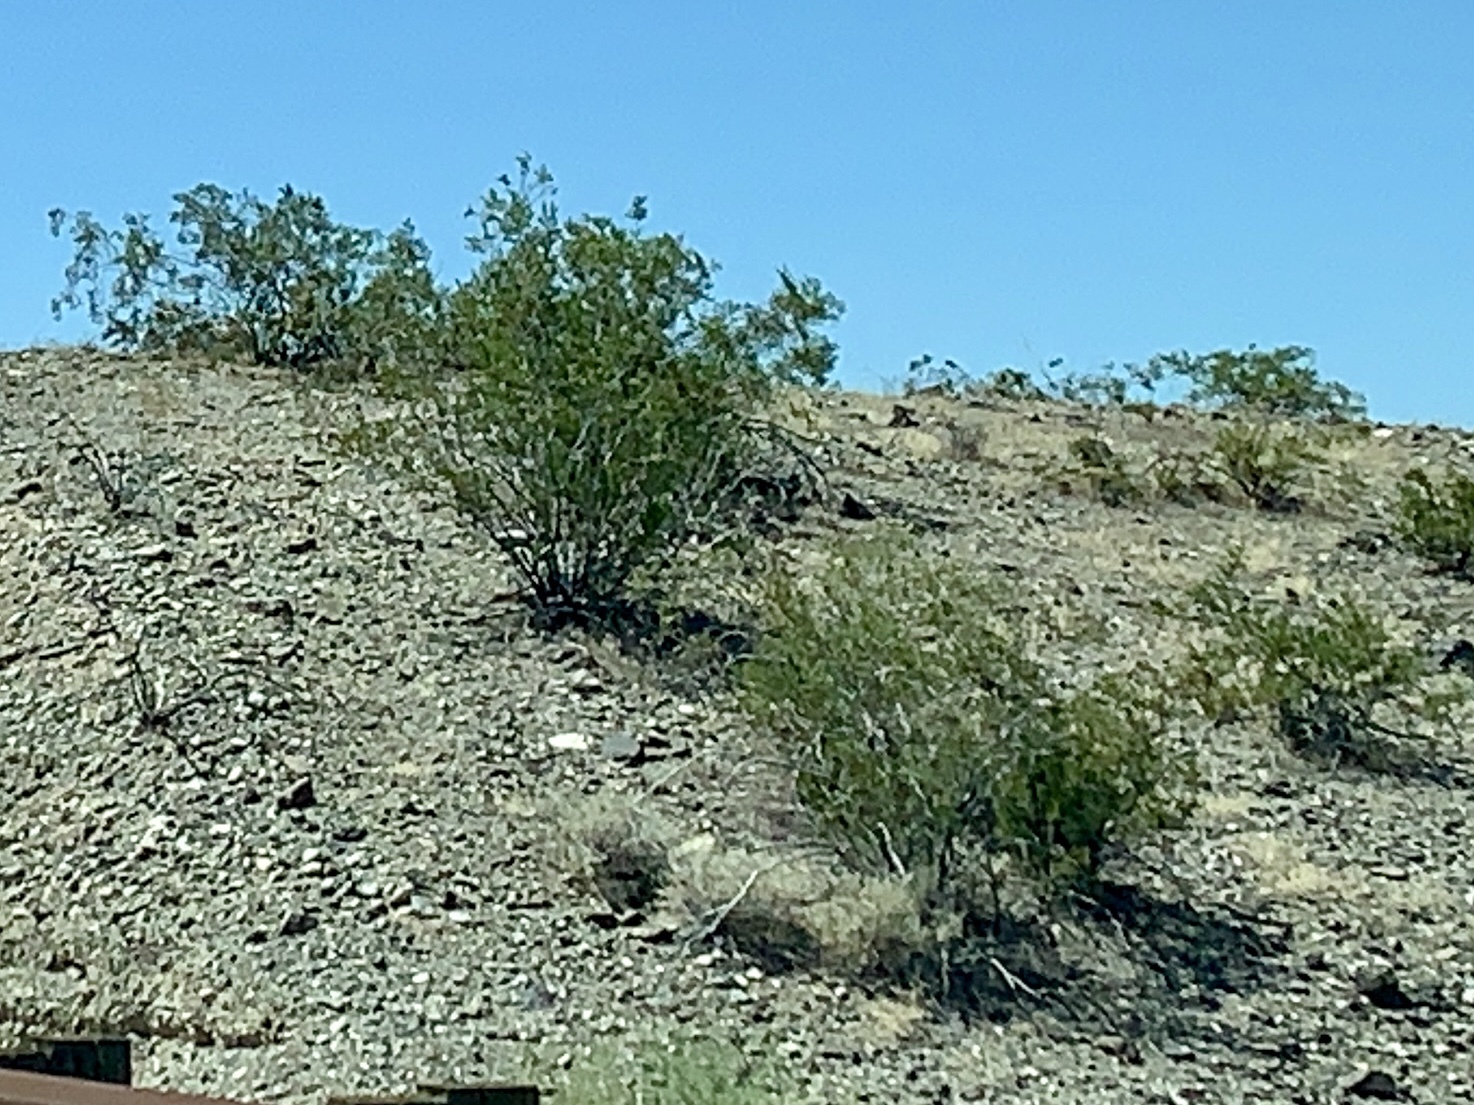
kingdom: Plantae
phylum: Tracheophyta
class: Magnoliopsida
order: Zygophyllales
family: Zygophyllaceae
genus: Larrea
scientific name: Larrea tridentata
